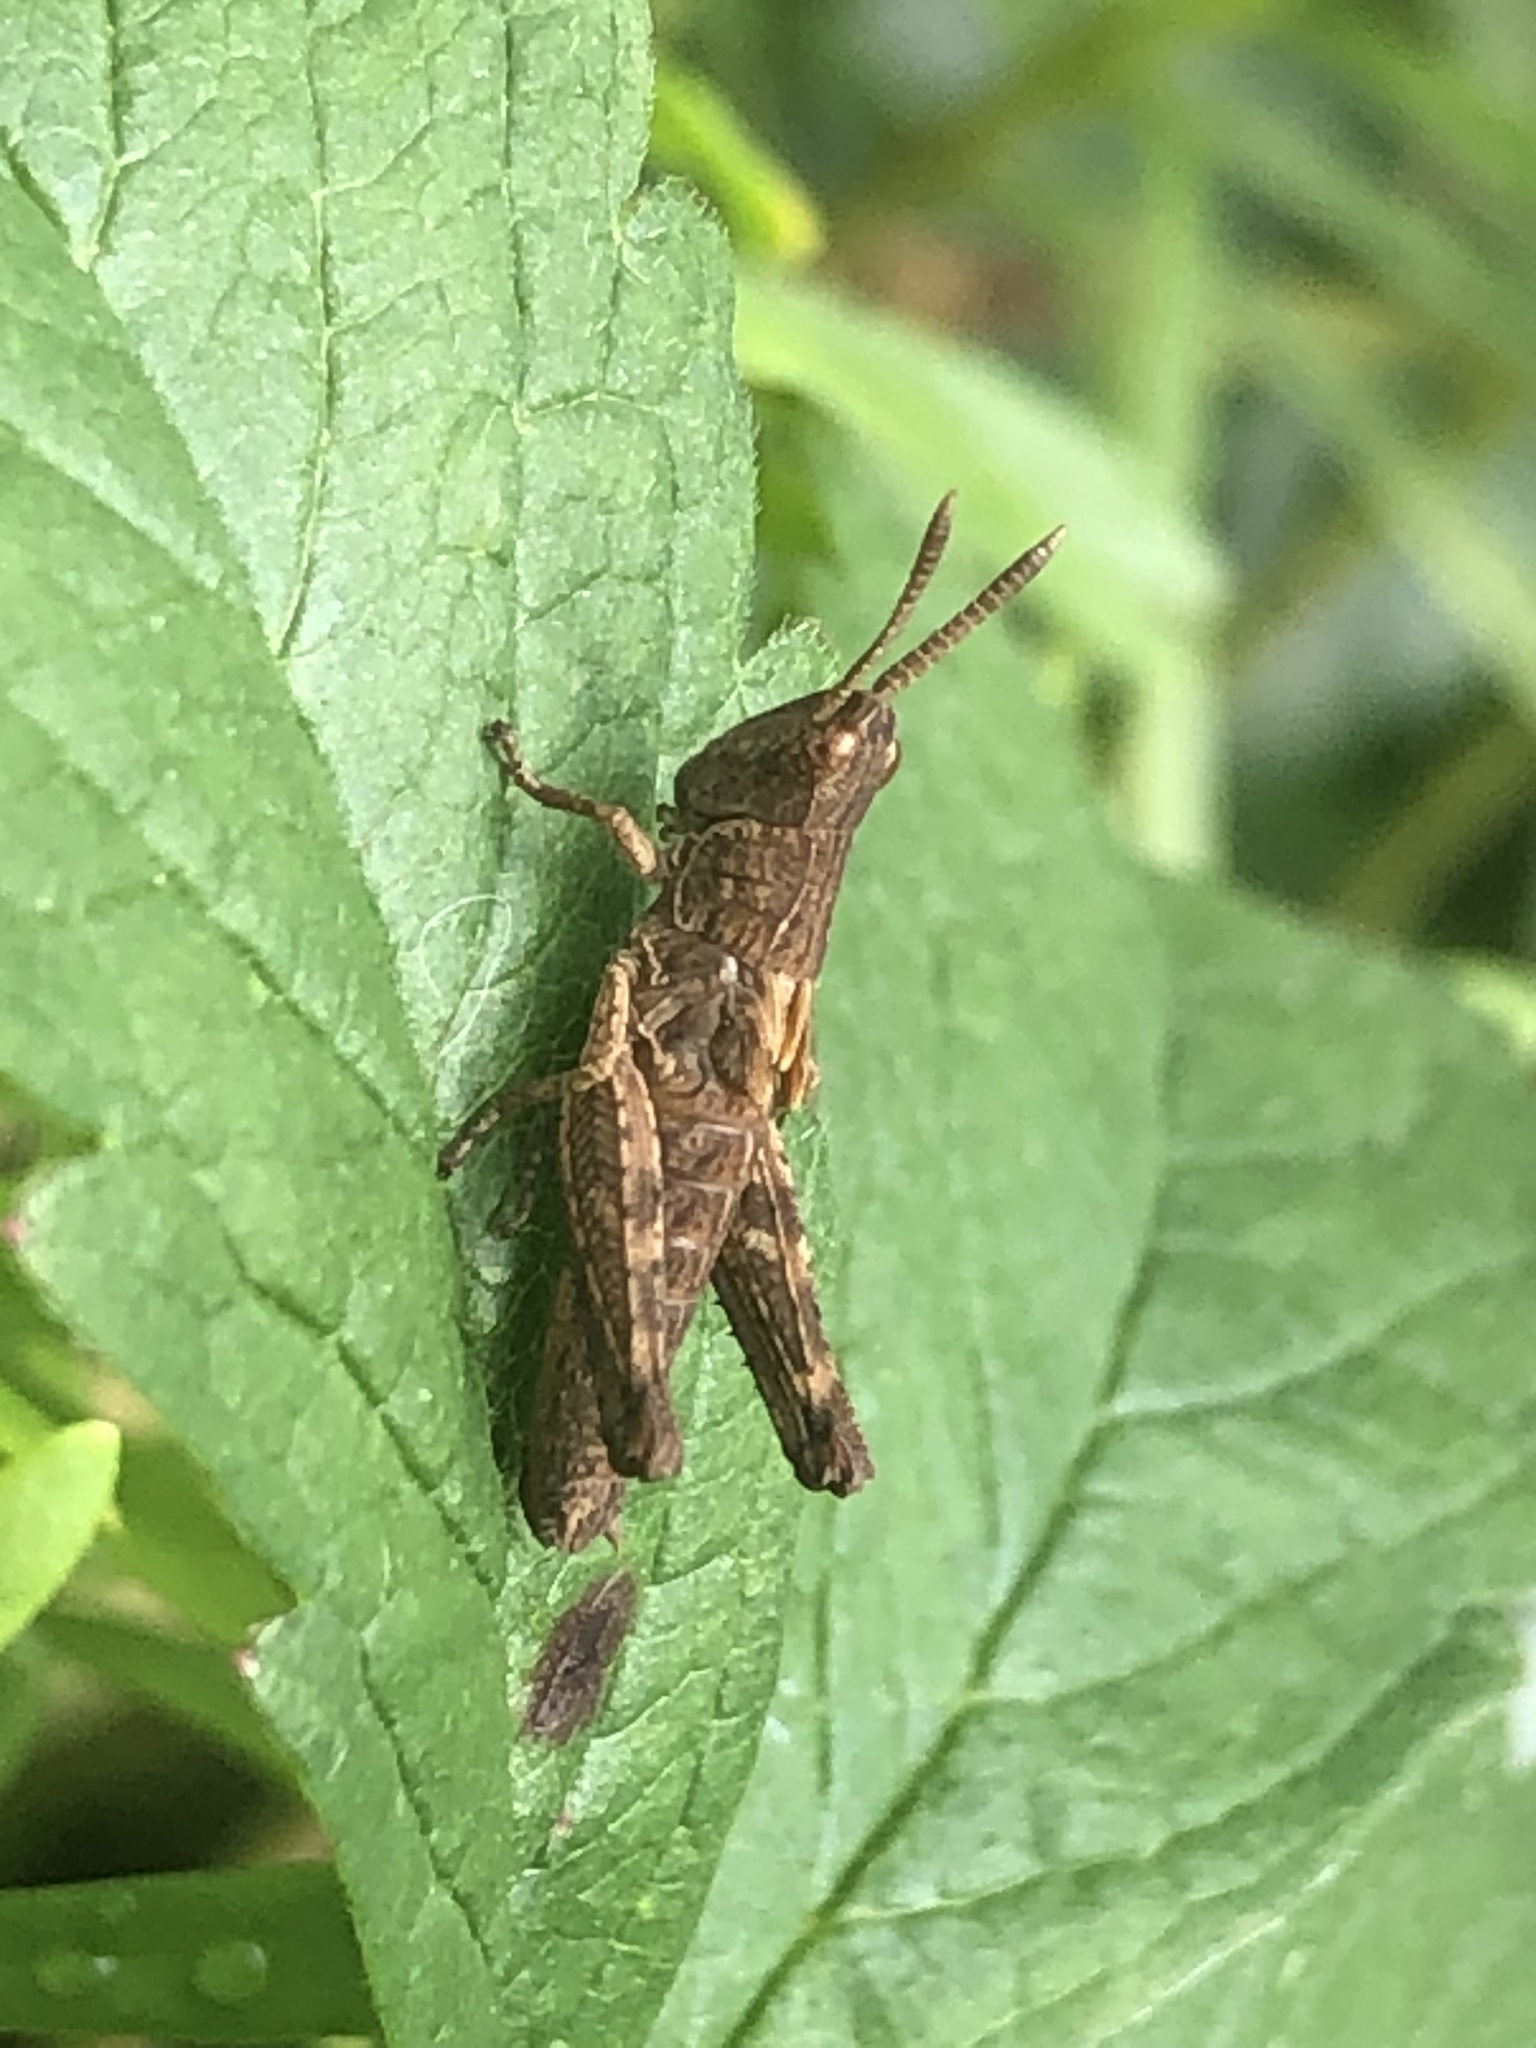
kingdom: Animalia
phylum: Arthropoda
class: Insecta
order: Orthoptera
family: Acrididae
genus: Gomphocerippus
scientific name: Gomphocerippus rufus
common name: Rufous grasshopper
